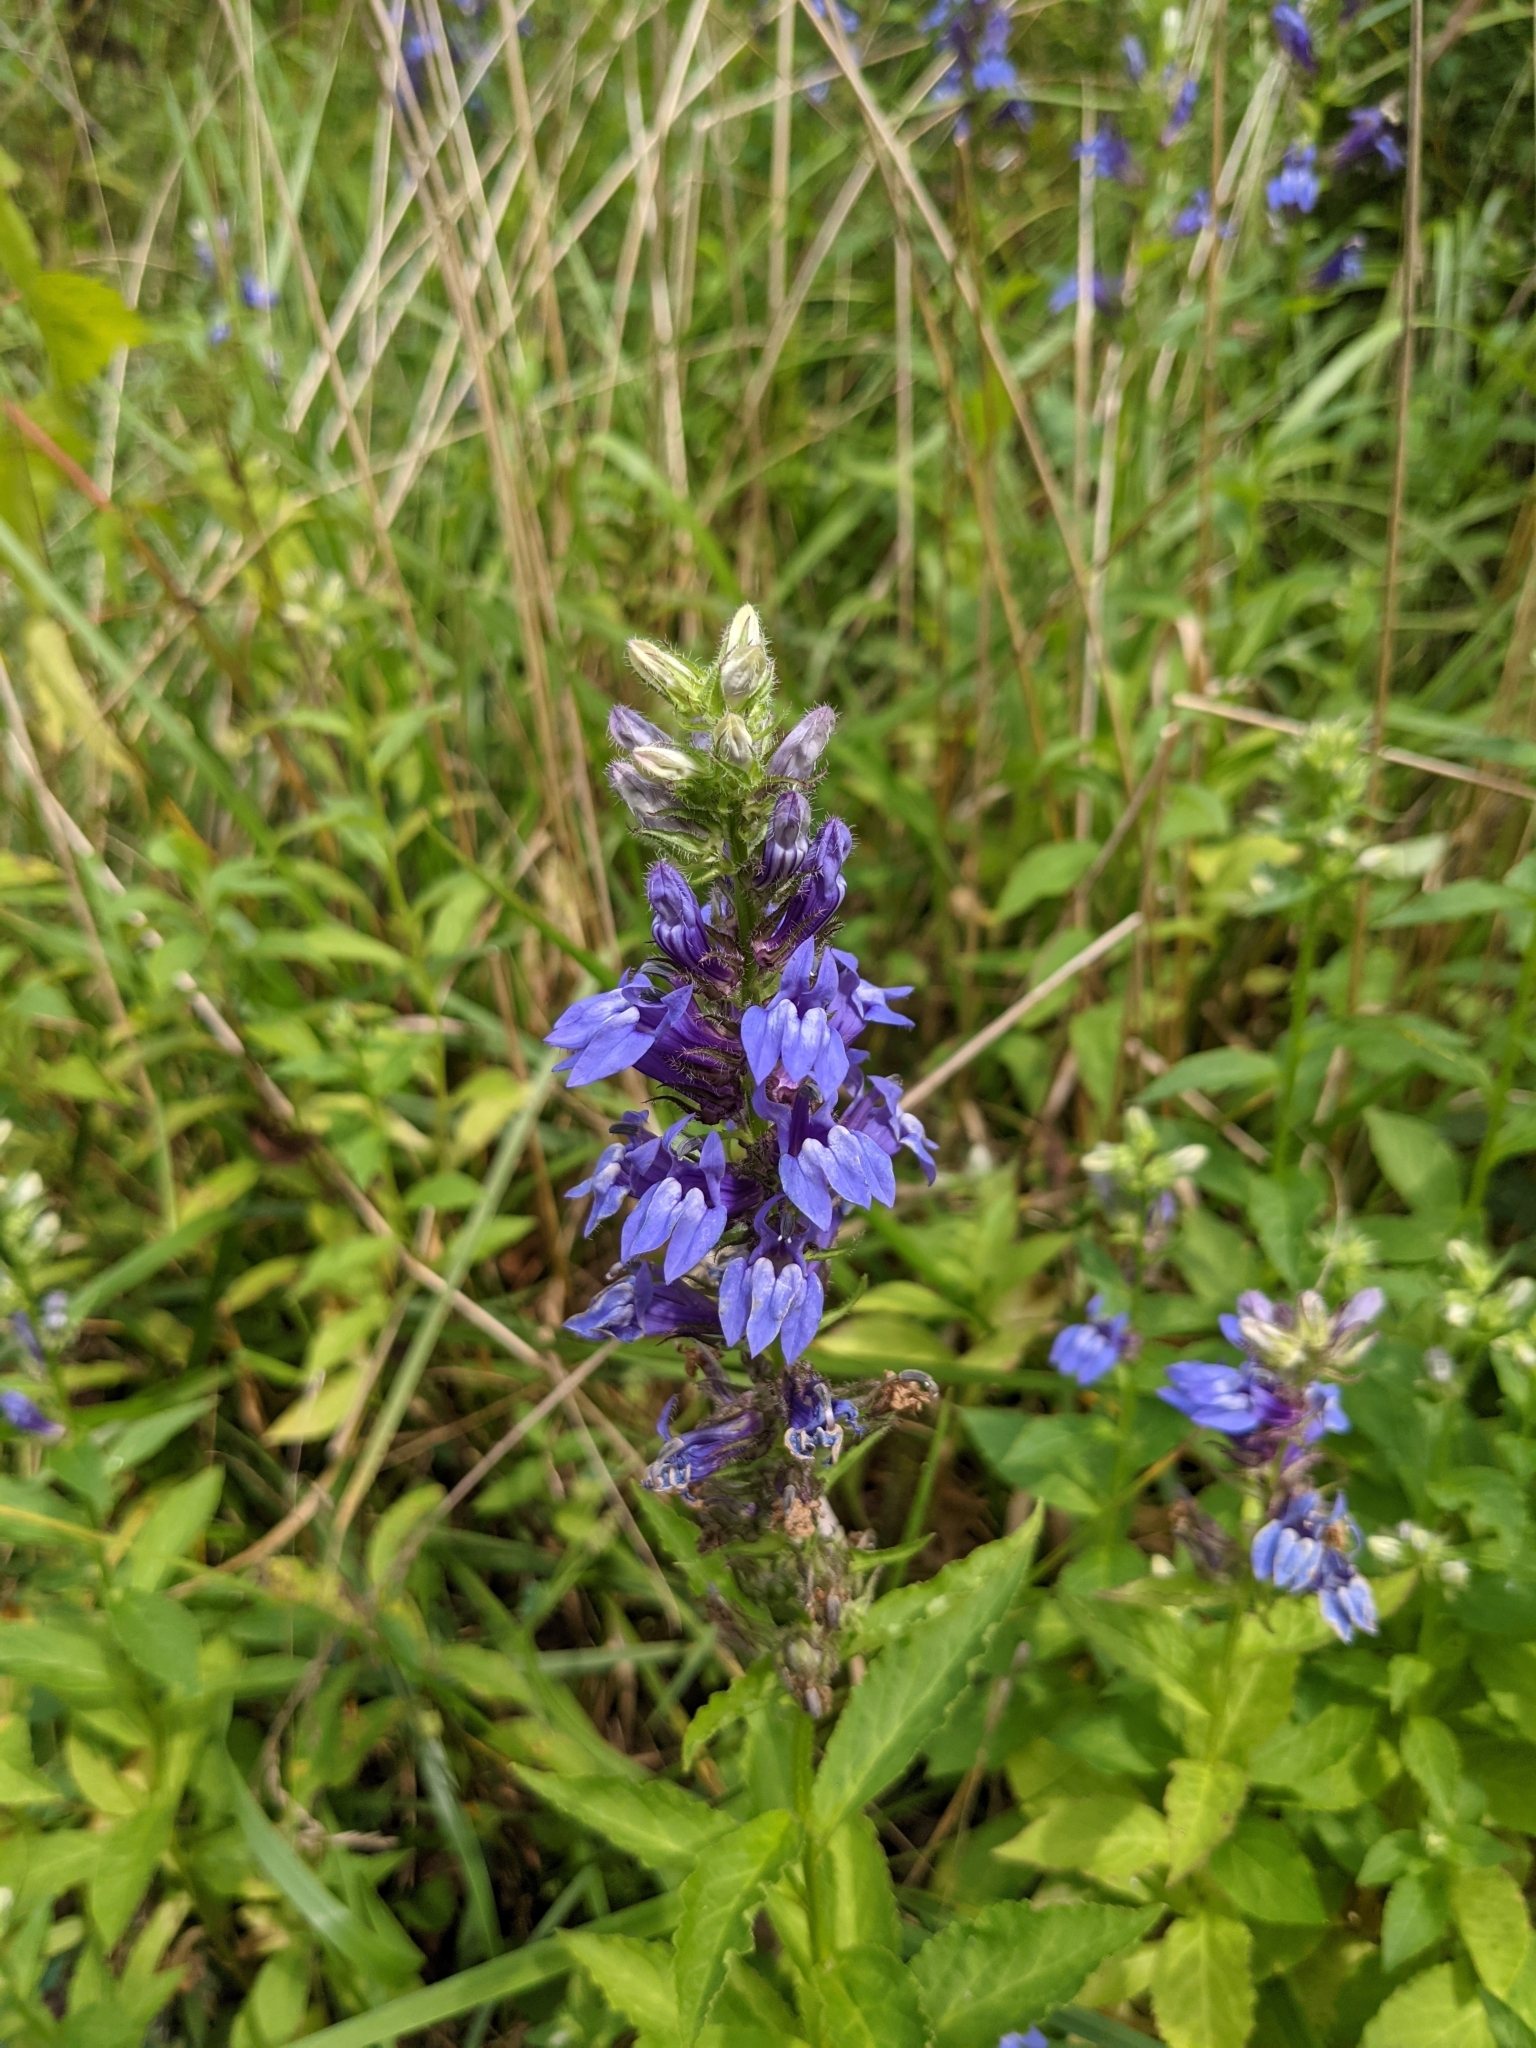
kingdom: Plantae
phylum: Tracheophyta
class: Magnoliopsida
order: Asterales
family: Campanulaceae
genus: Lobelia
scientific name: Lobelia siphilitica
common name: Great lobelia
